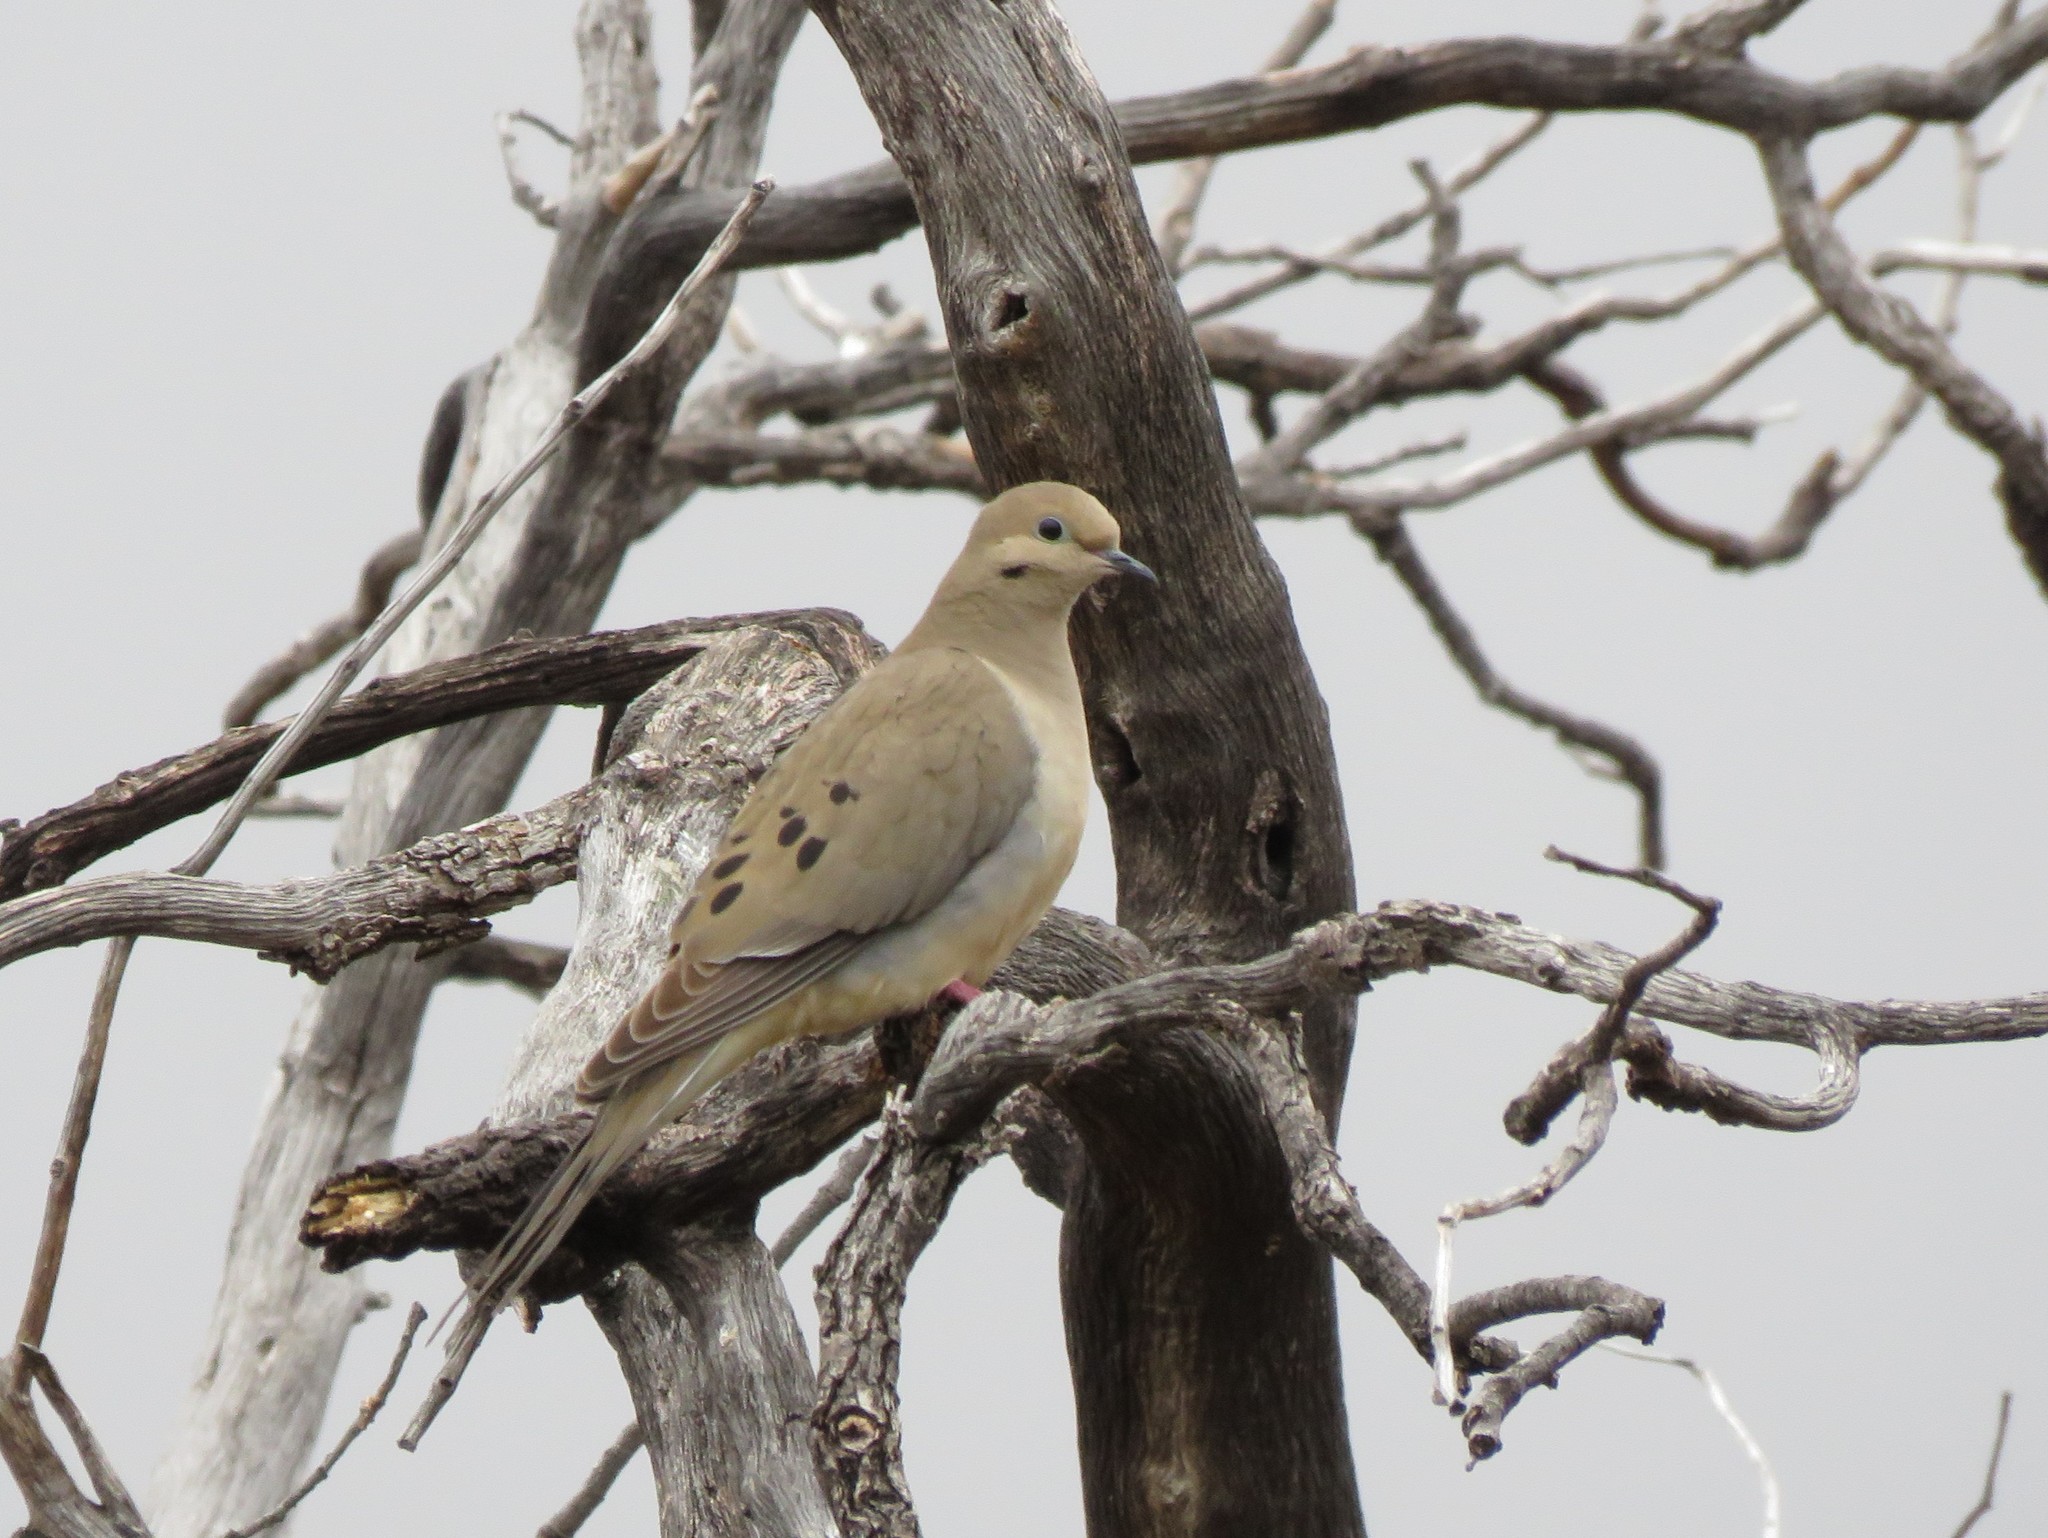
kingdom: Animalia
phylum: Chordata
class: Aves
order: Columbiformes
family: Columbidae
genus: Zenaida
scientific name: Zenaida macroura
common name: Mourning dove
